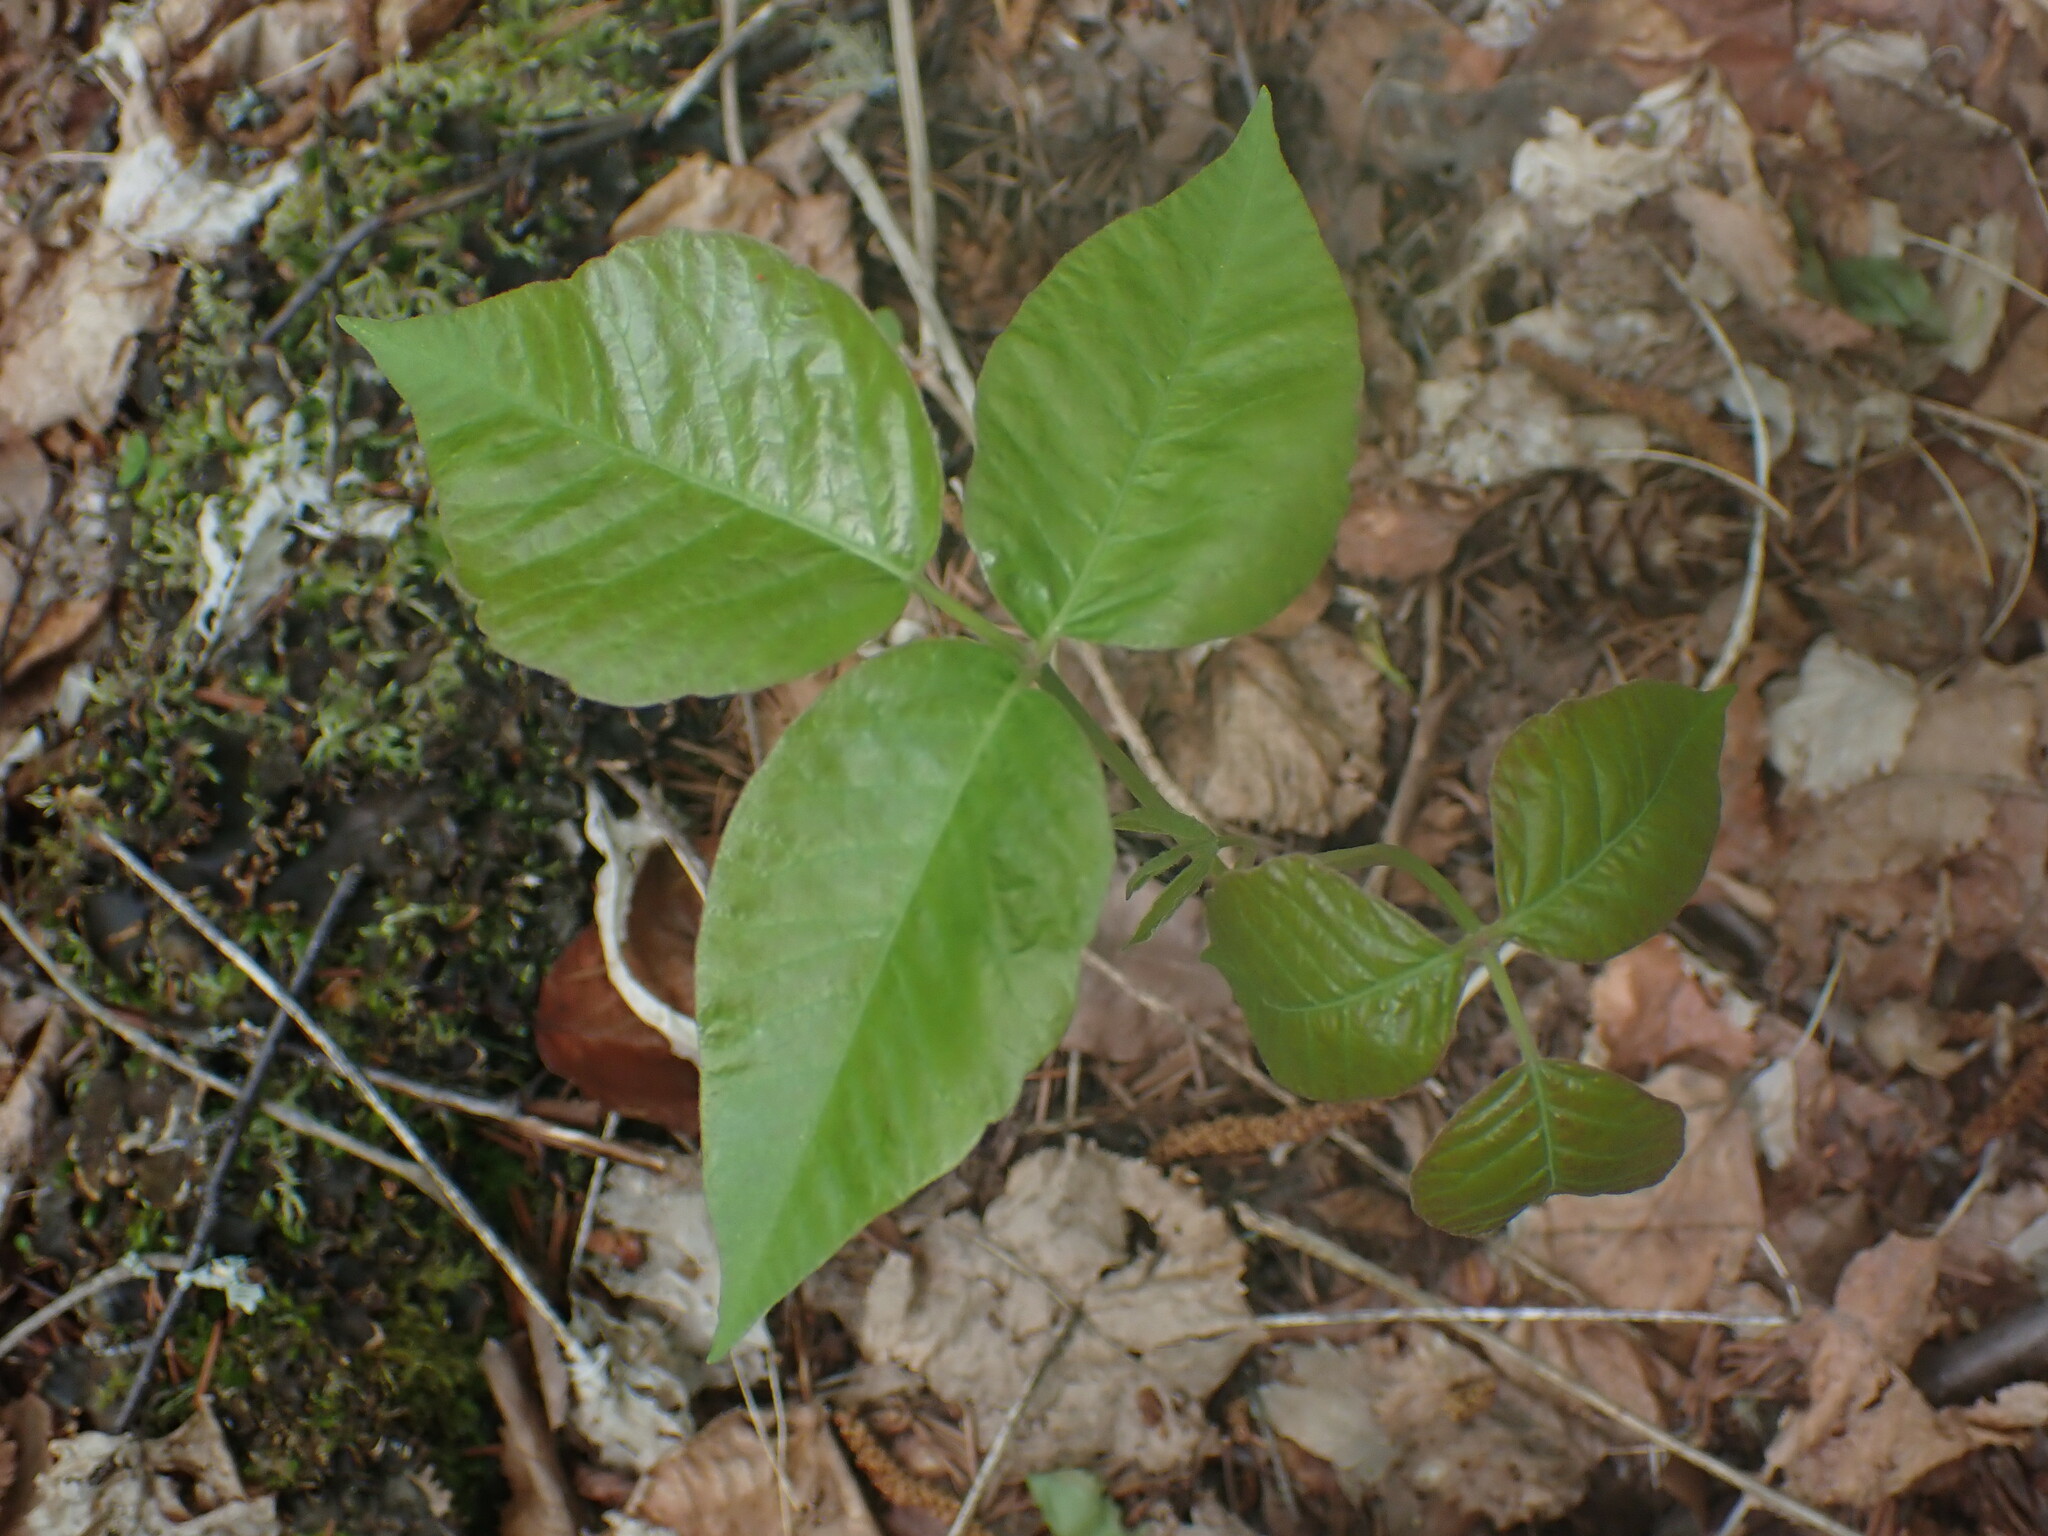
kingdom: Plantae
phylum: Tracheophyta
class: Magnoliopsida
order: Sapindales
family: Anacardiaceae
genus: Toxicodendron
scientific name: Toxicodendron rydbergii
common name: Rydberg's poison-ivy
